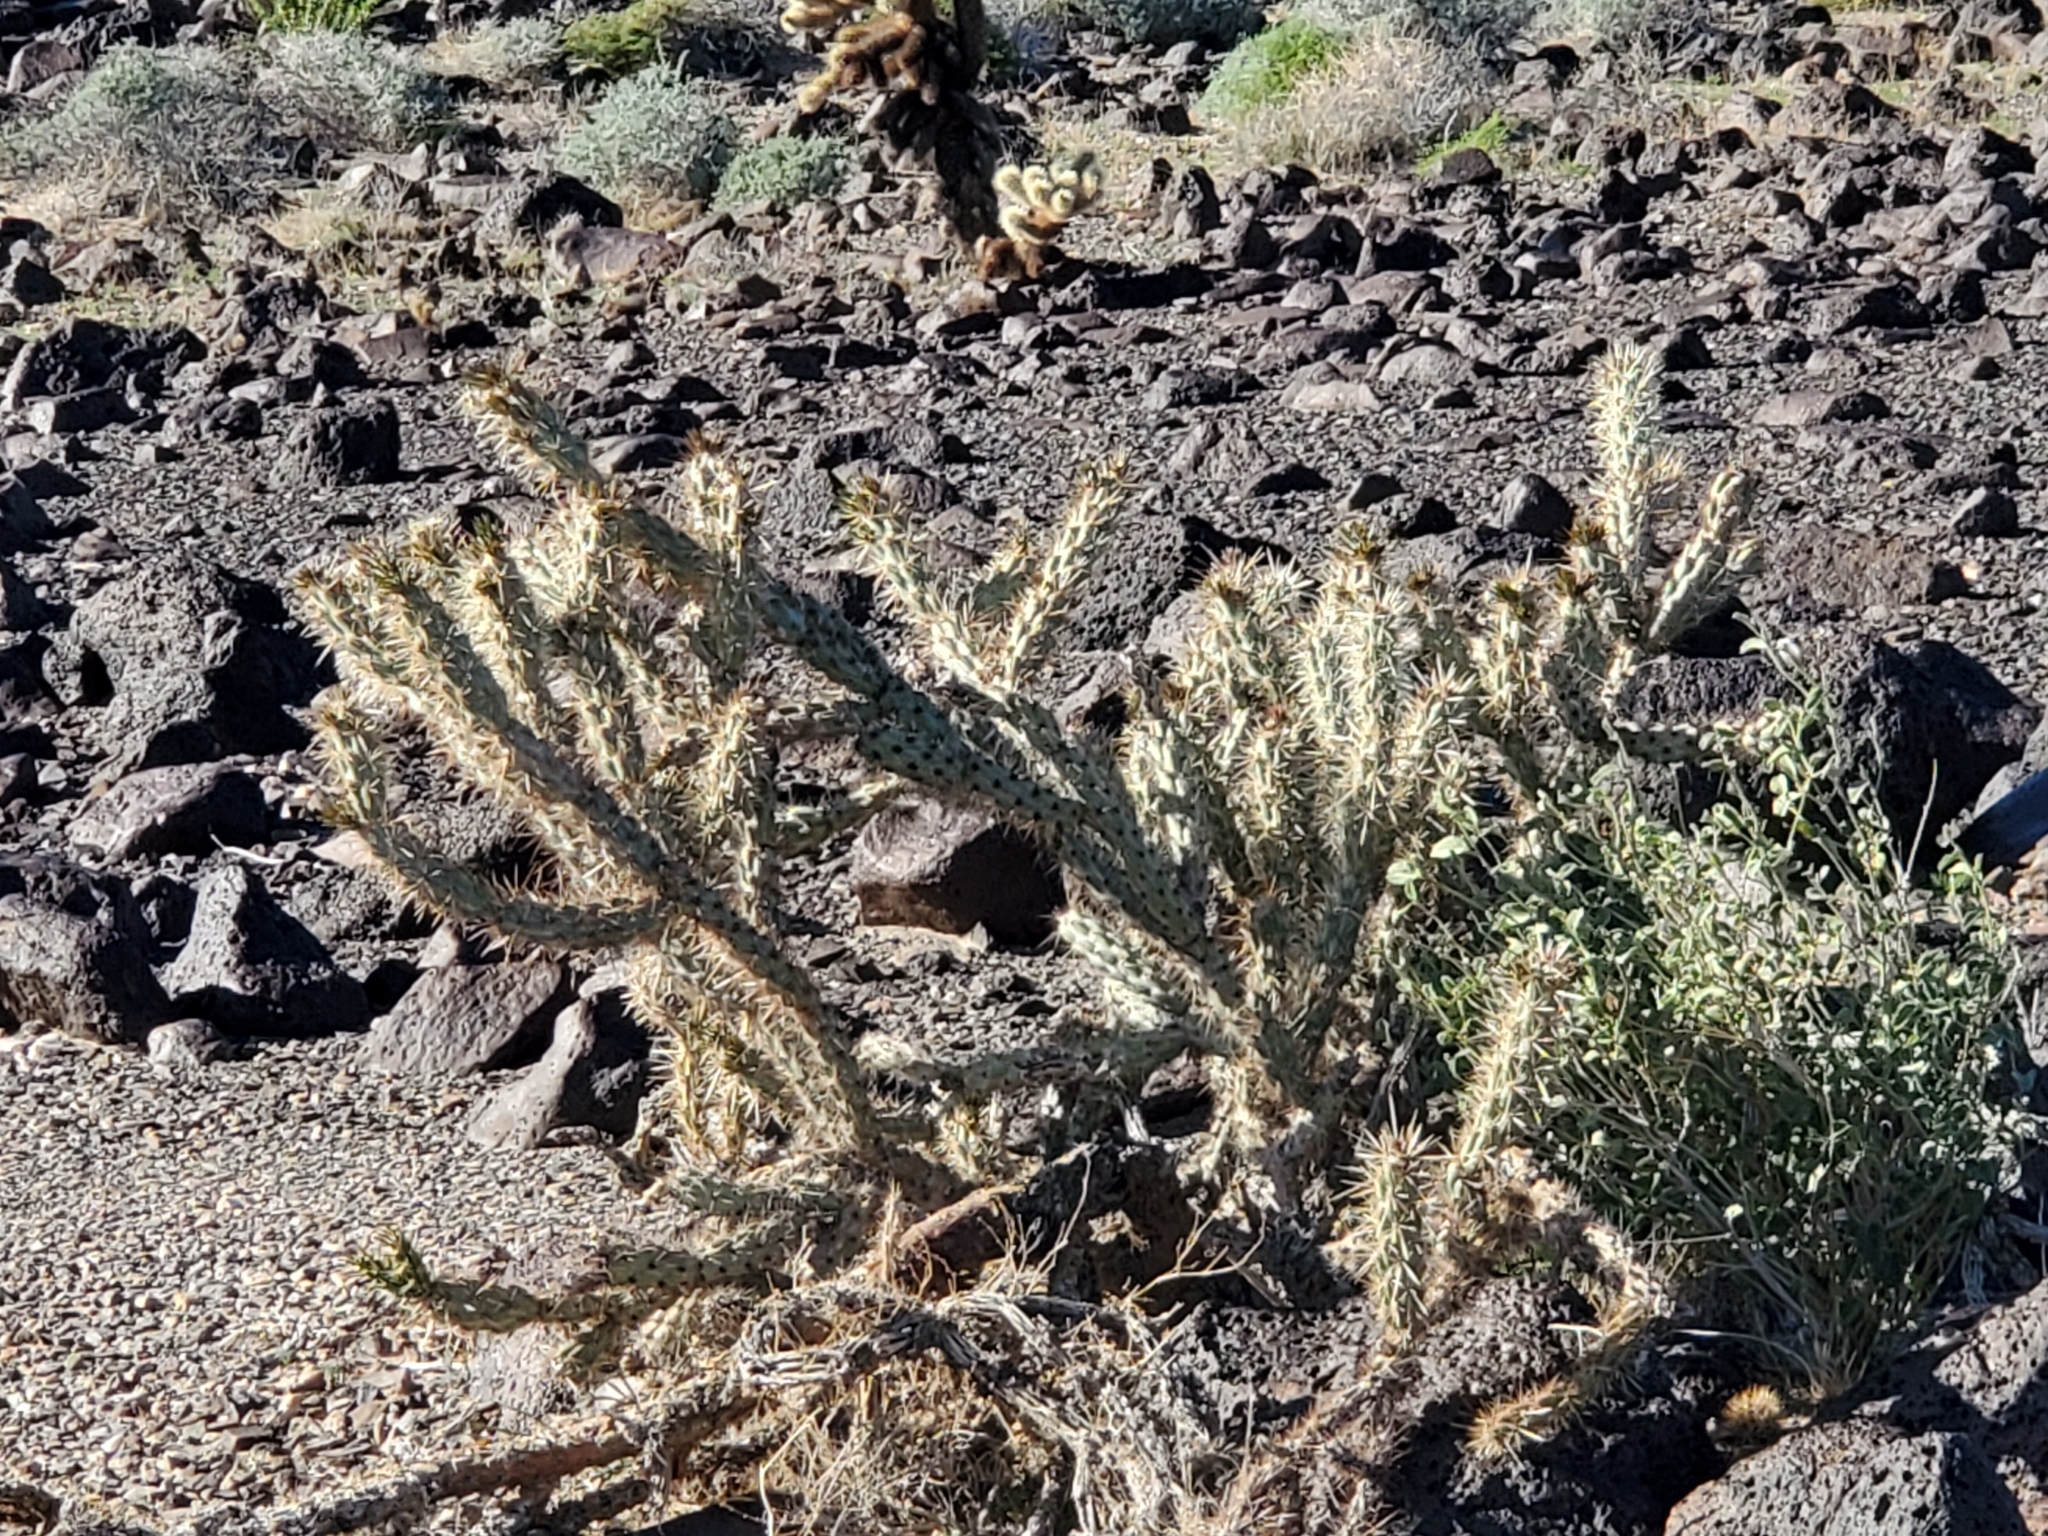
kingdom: Plantae
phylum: Tracheophyta
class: Magnoliopsida
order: Caryophyllales
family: Cactaceae
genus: Cylindropuntia
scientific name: Cylindropuntia acanthocarpa
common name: Buckhorn cholla
